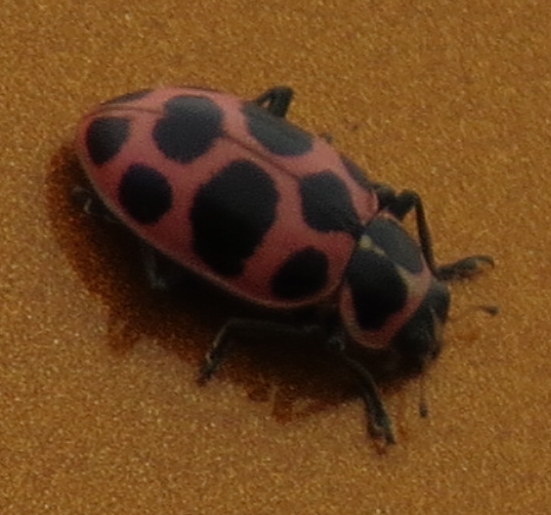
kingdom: Animalia
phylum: Arthropoda
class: Insecta
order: Coleoptera
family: Coccinellidae
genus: Coleomegilla
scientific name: Coleomegilla maculata
